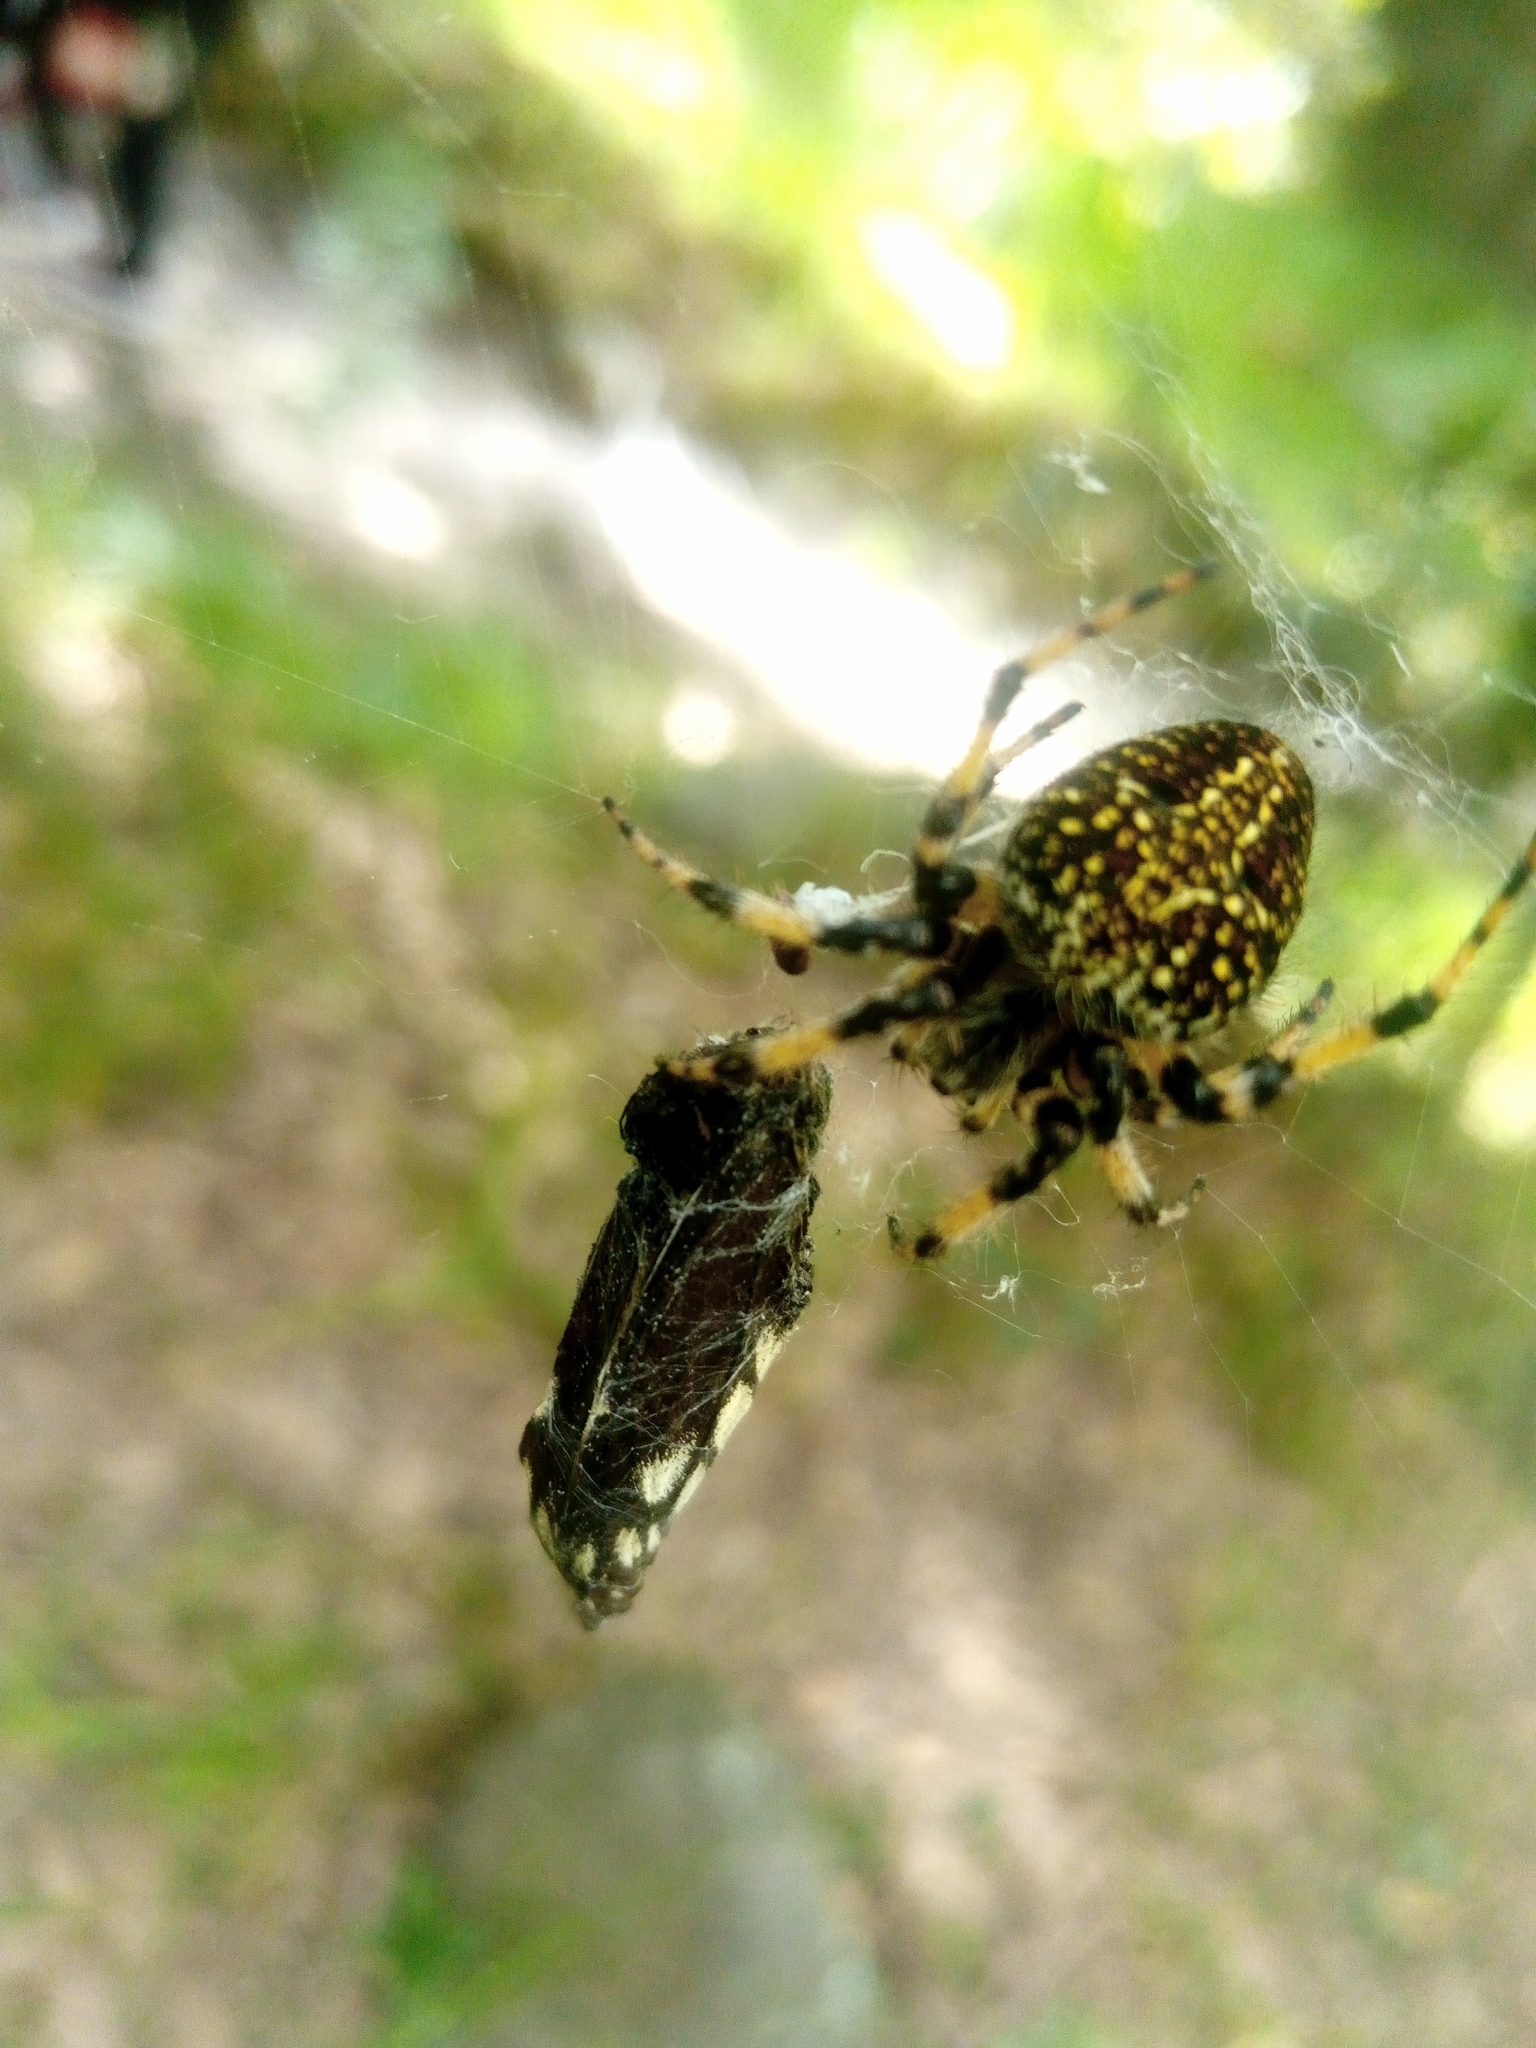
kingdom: Animalia
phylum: Arthropoda
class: Arachnida
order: Araneae
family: Araneidae
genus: Neoscona
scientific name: Neoscona orizabensis
